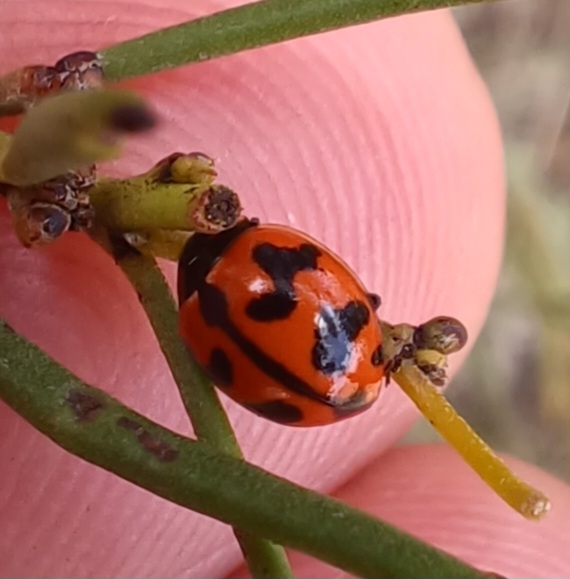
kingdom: Animalia
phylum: Arthropoda
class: Insecta
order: Coleoptera
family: Coccinellidae
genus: Coccinella
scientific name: Coccinella transversalis
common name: Transverse lady beetle
